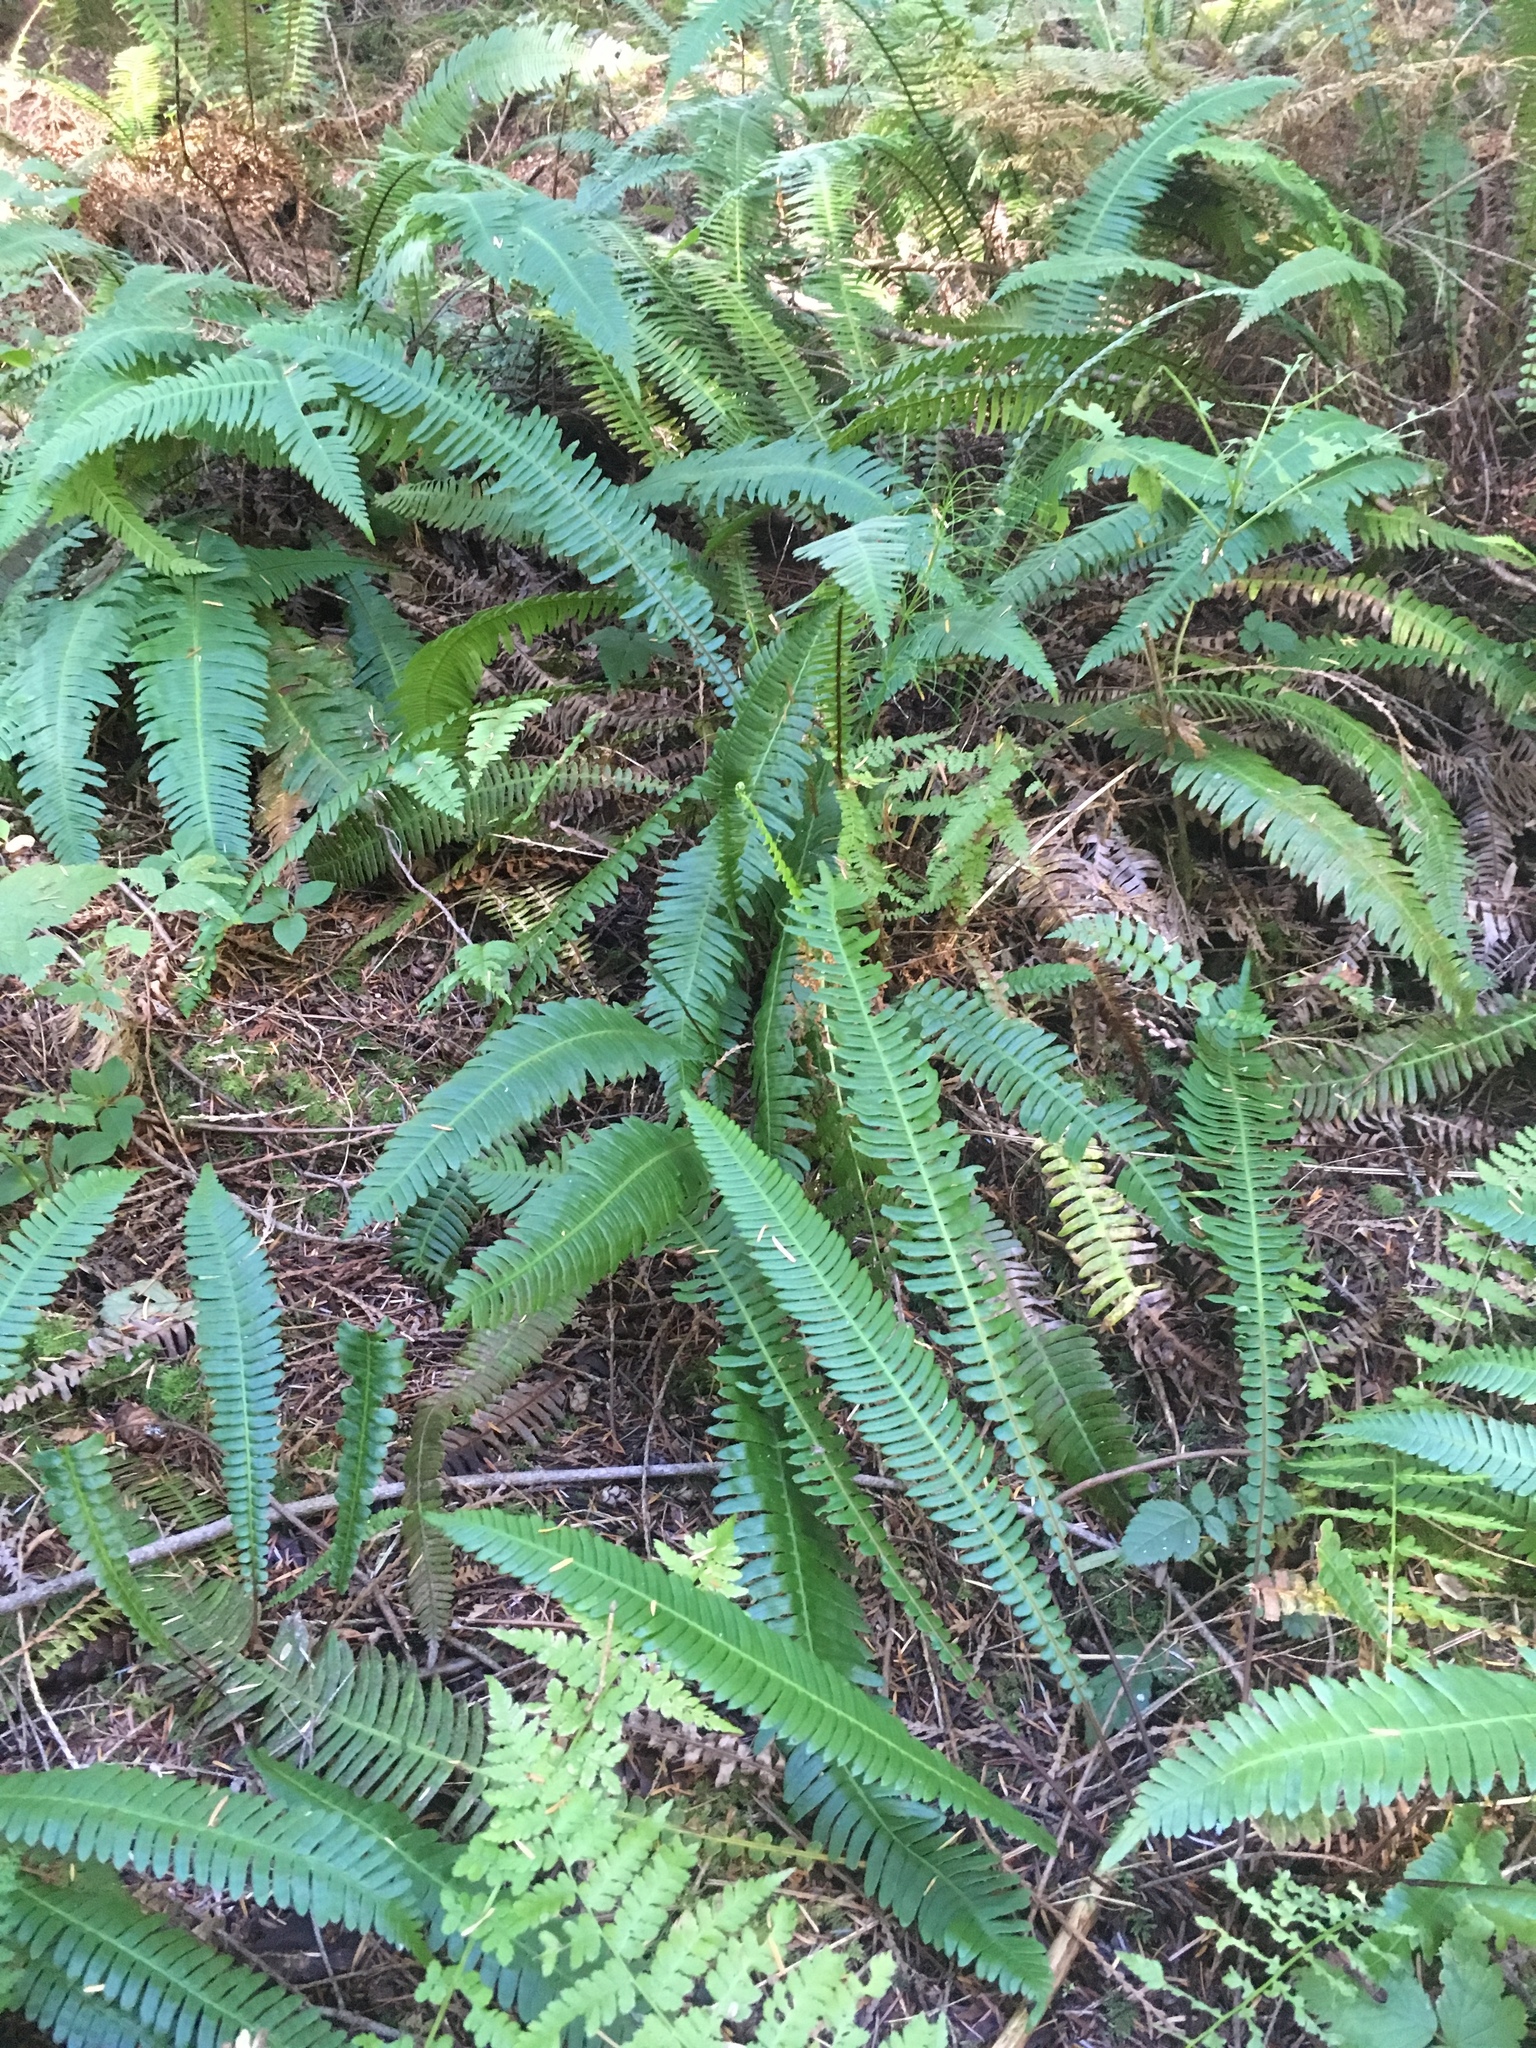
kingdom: Plantae
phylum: Tracheophyta
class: Polypodiopsida
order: Polypodiales
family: Blechnaceae
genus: Struthiopteris
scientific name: Struthiopteris spicant
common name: Deer fern
